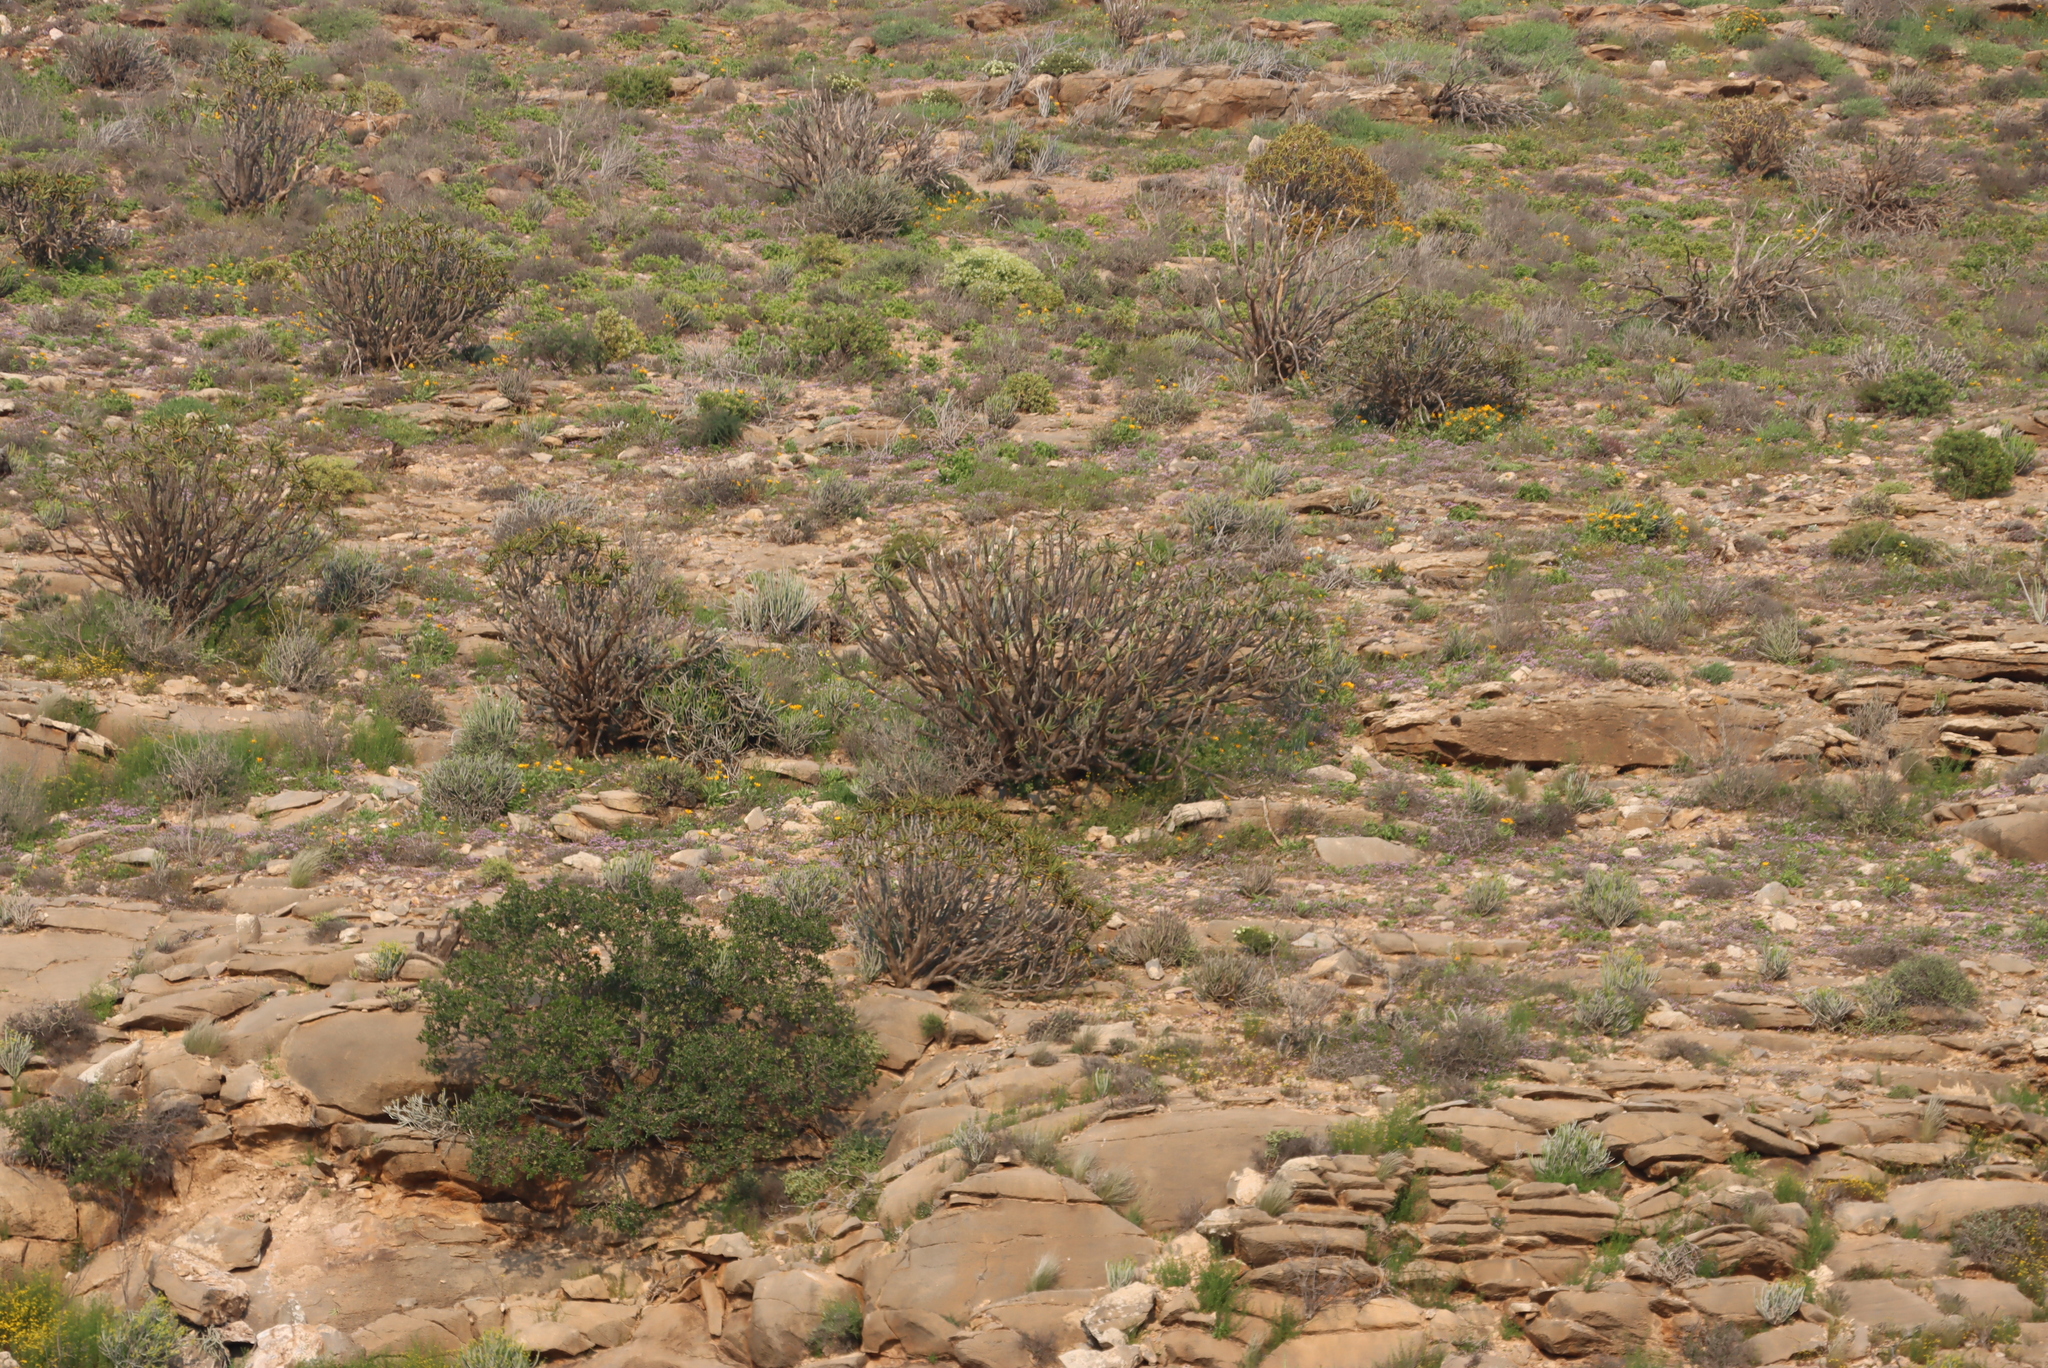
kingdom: Plantae
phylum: Tracheophyta
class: Liliopsida
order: Asparagales
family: Asphodelaceae
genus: Aloidendron
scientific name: Aloidendron ramosissimum
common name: Bush quiver tree
